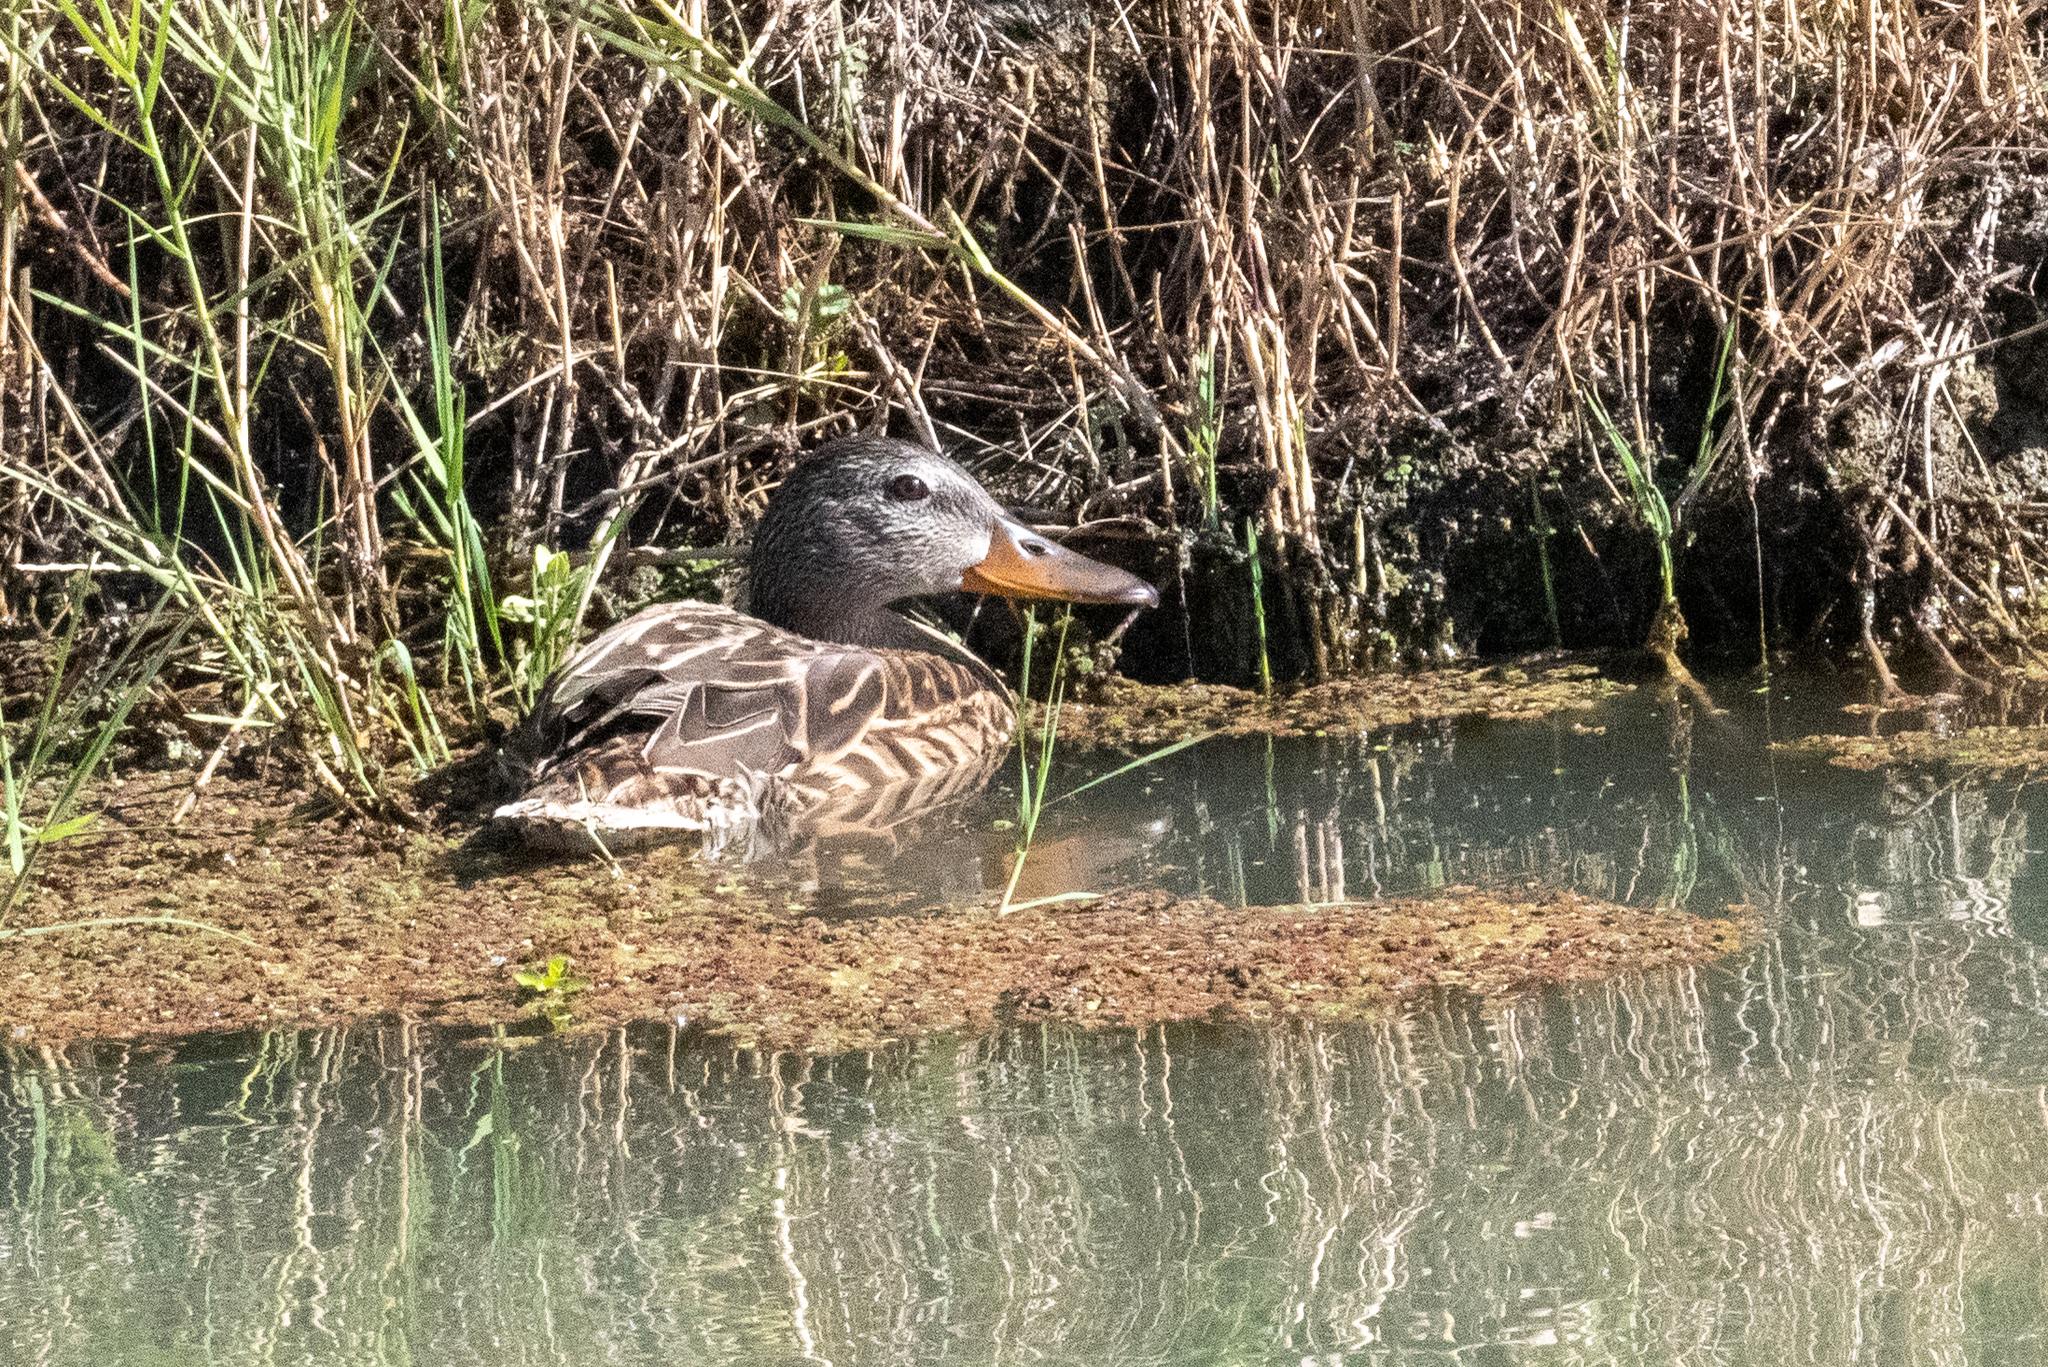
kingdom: Animalia
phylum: Chordata
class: Aves
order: Anseriformes
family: Anatidae
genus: Anas
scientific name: Anas platyrhynchos
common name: Mallard
